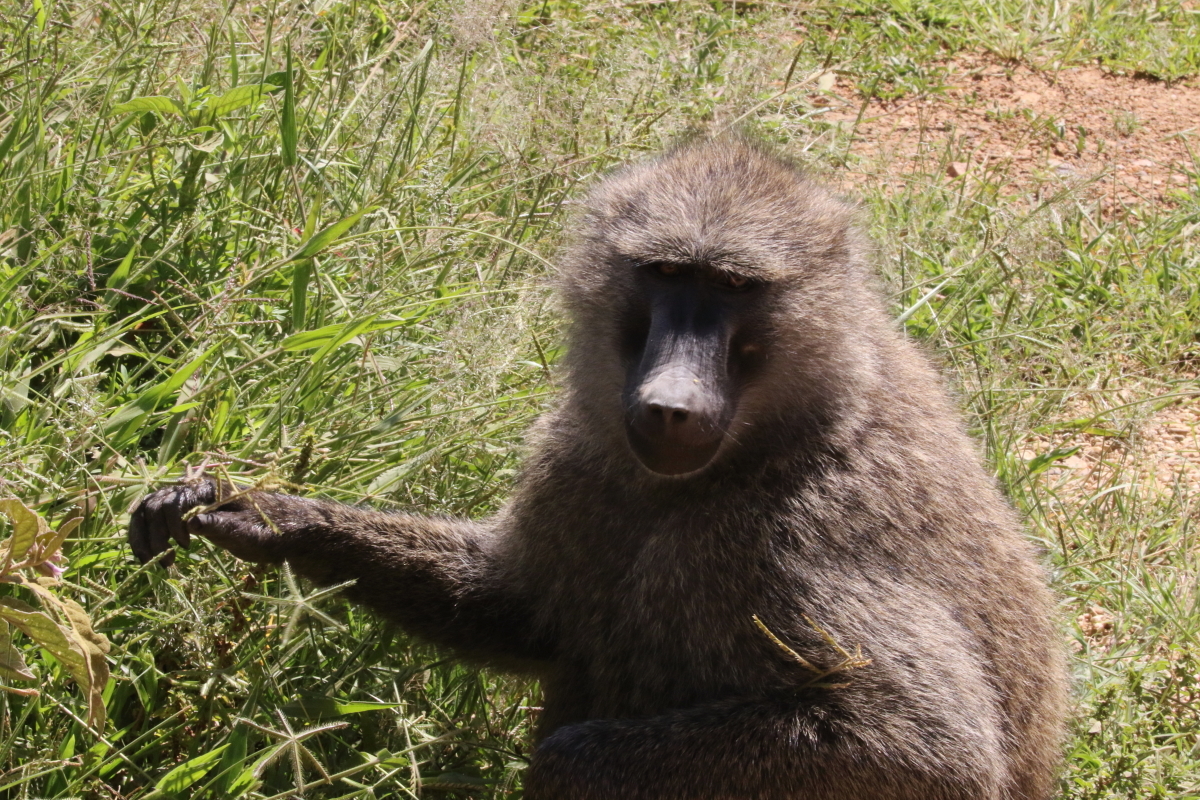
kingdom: Animalia
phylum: Chordata
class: Mammalia
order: Primates
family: Cercopithecidae
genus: Papio
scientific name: Papio anubis
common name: Olive baboon
